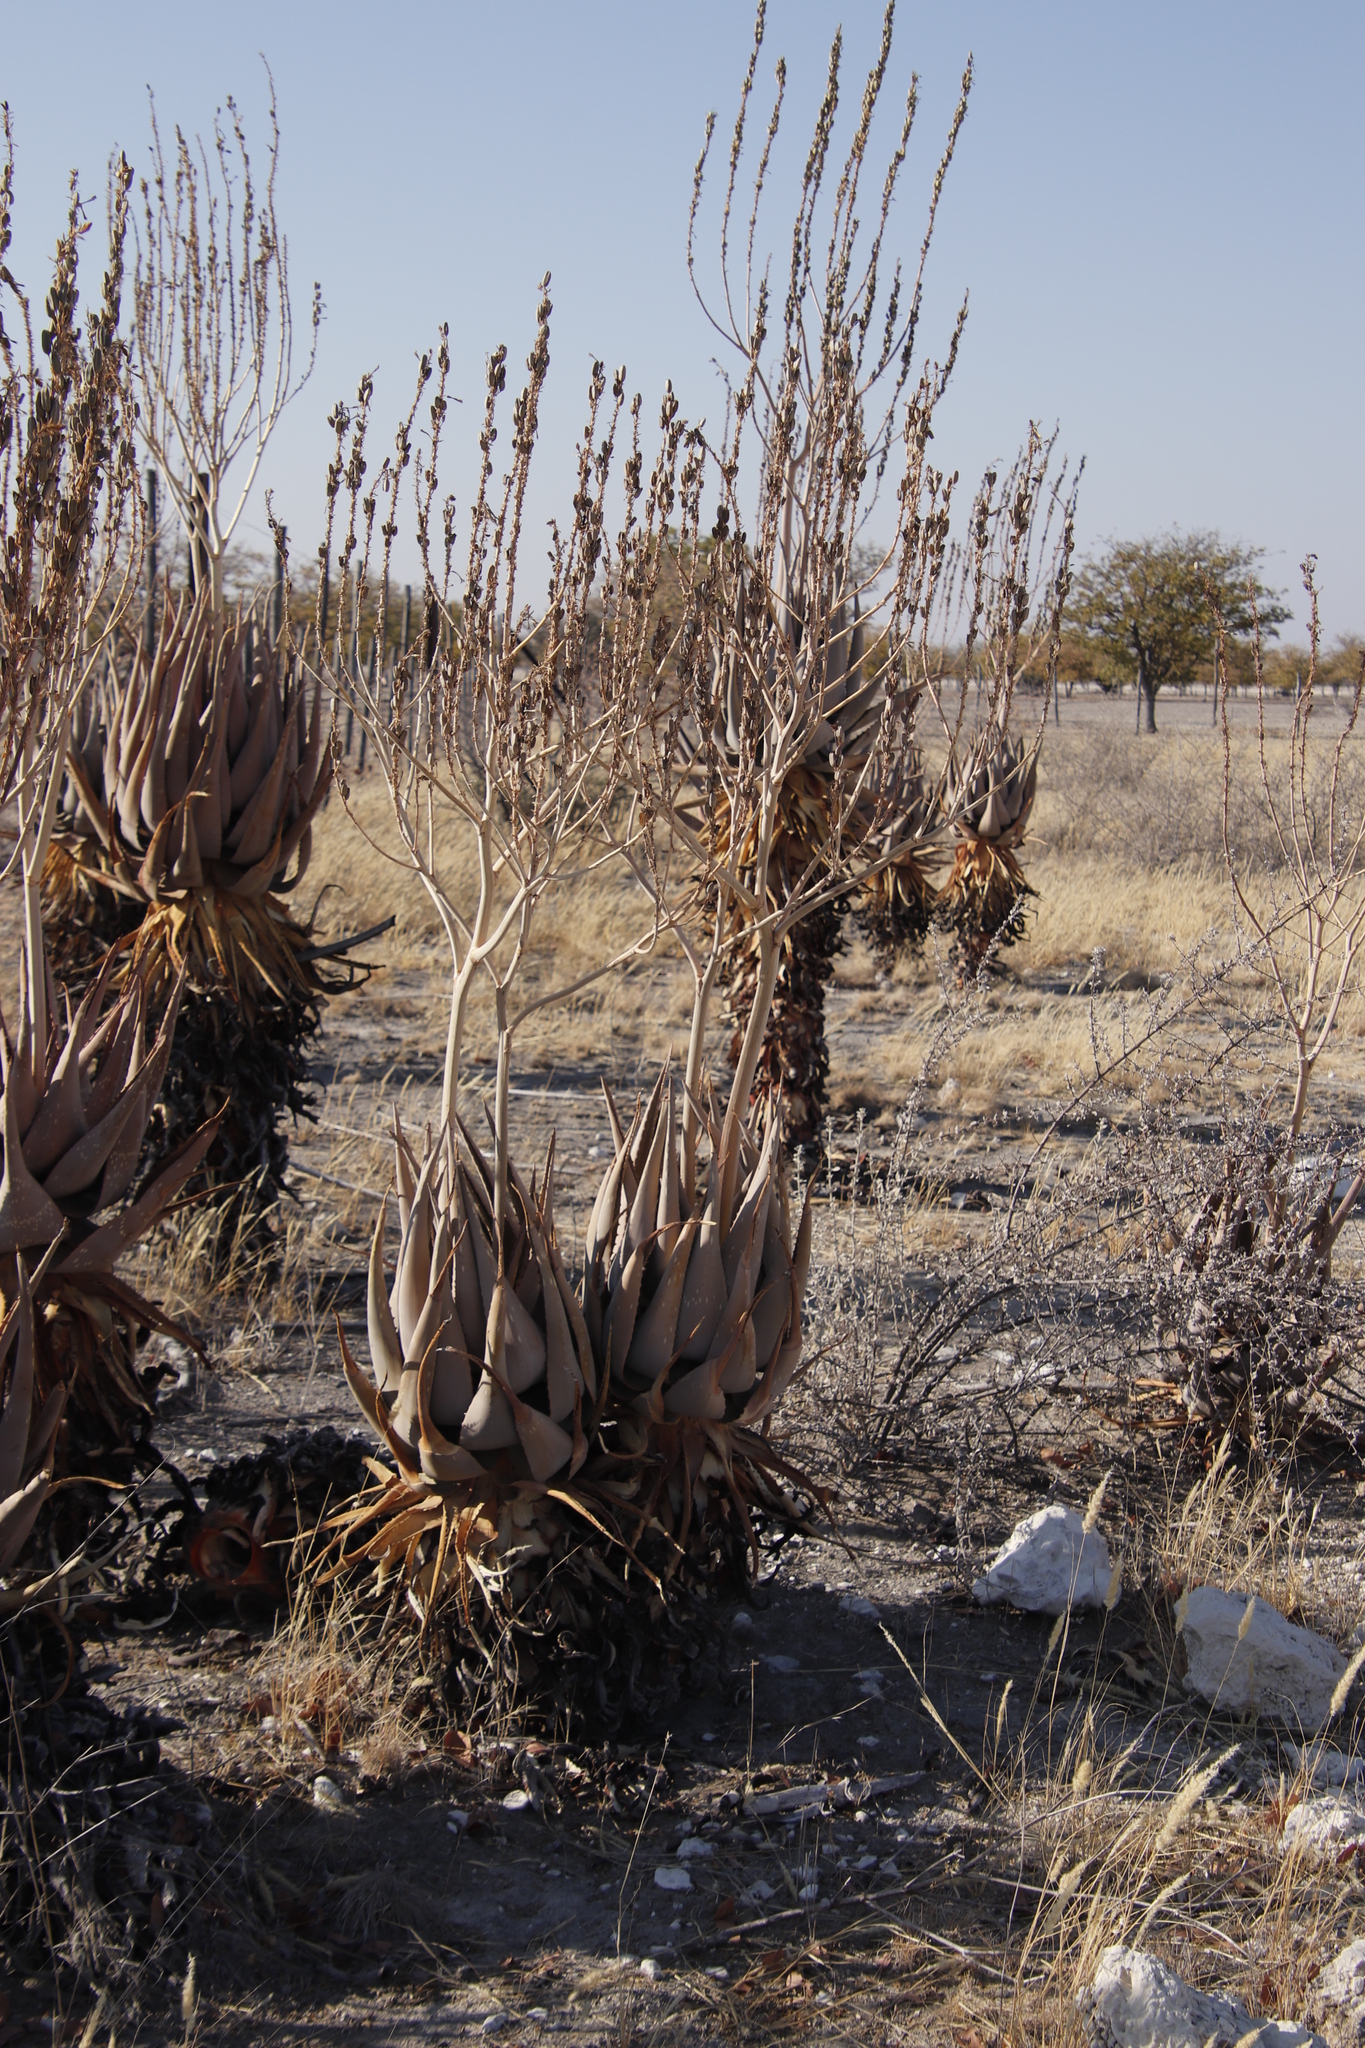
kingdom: Plantae
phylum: Tracheophyta
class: Liliopsida
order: Asparagales
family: Asphodelaceae
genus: Aloe
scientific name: Aloe littoralis
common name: Luanda tree aloe
